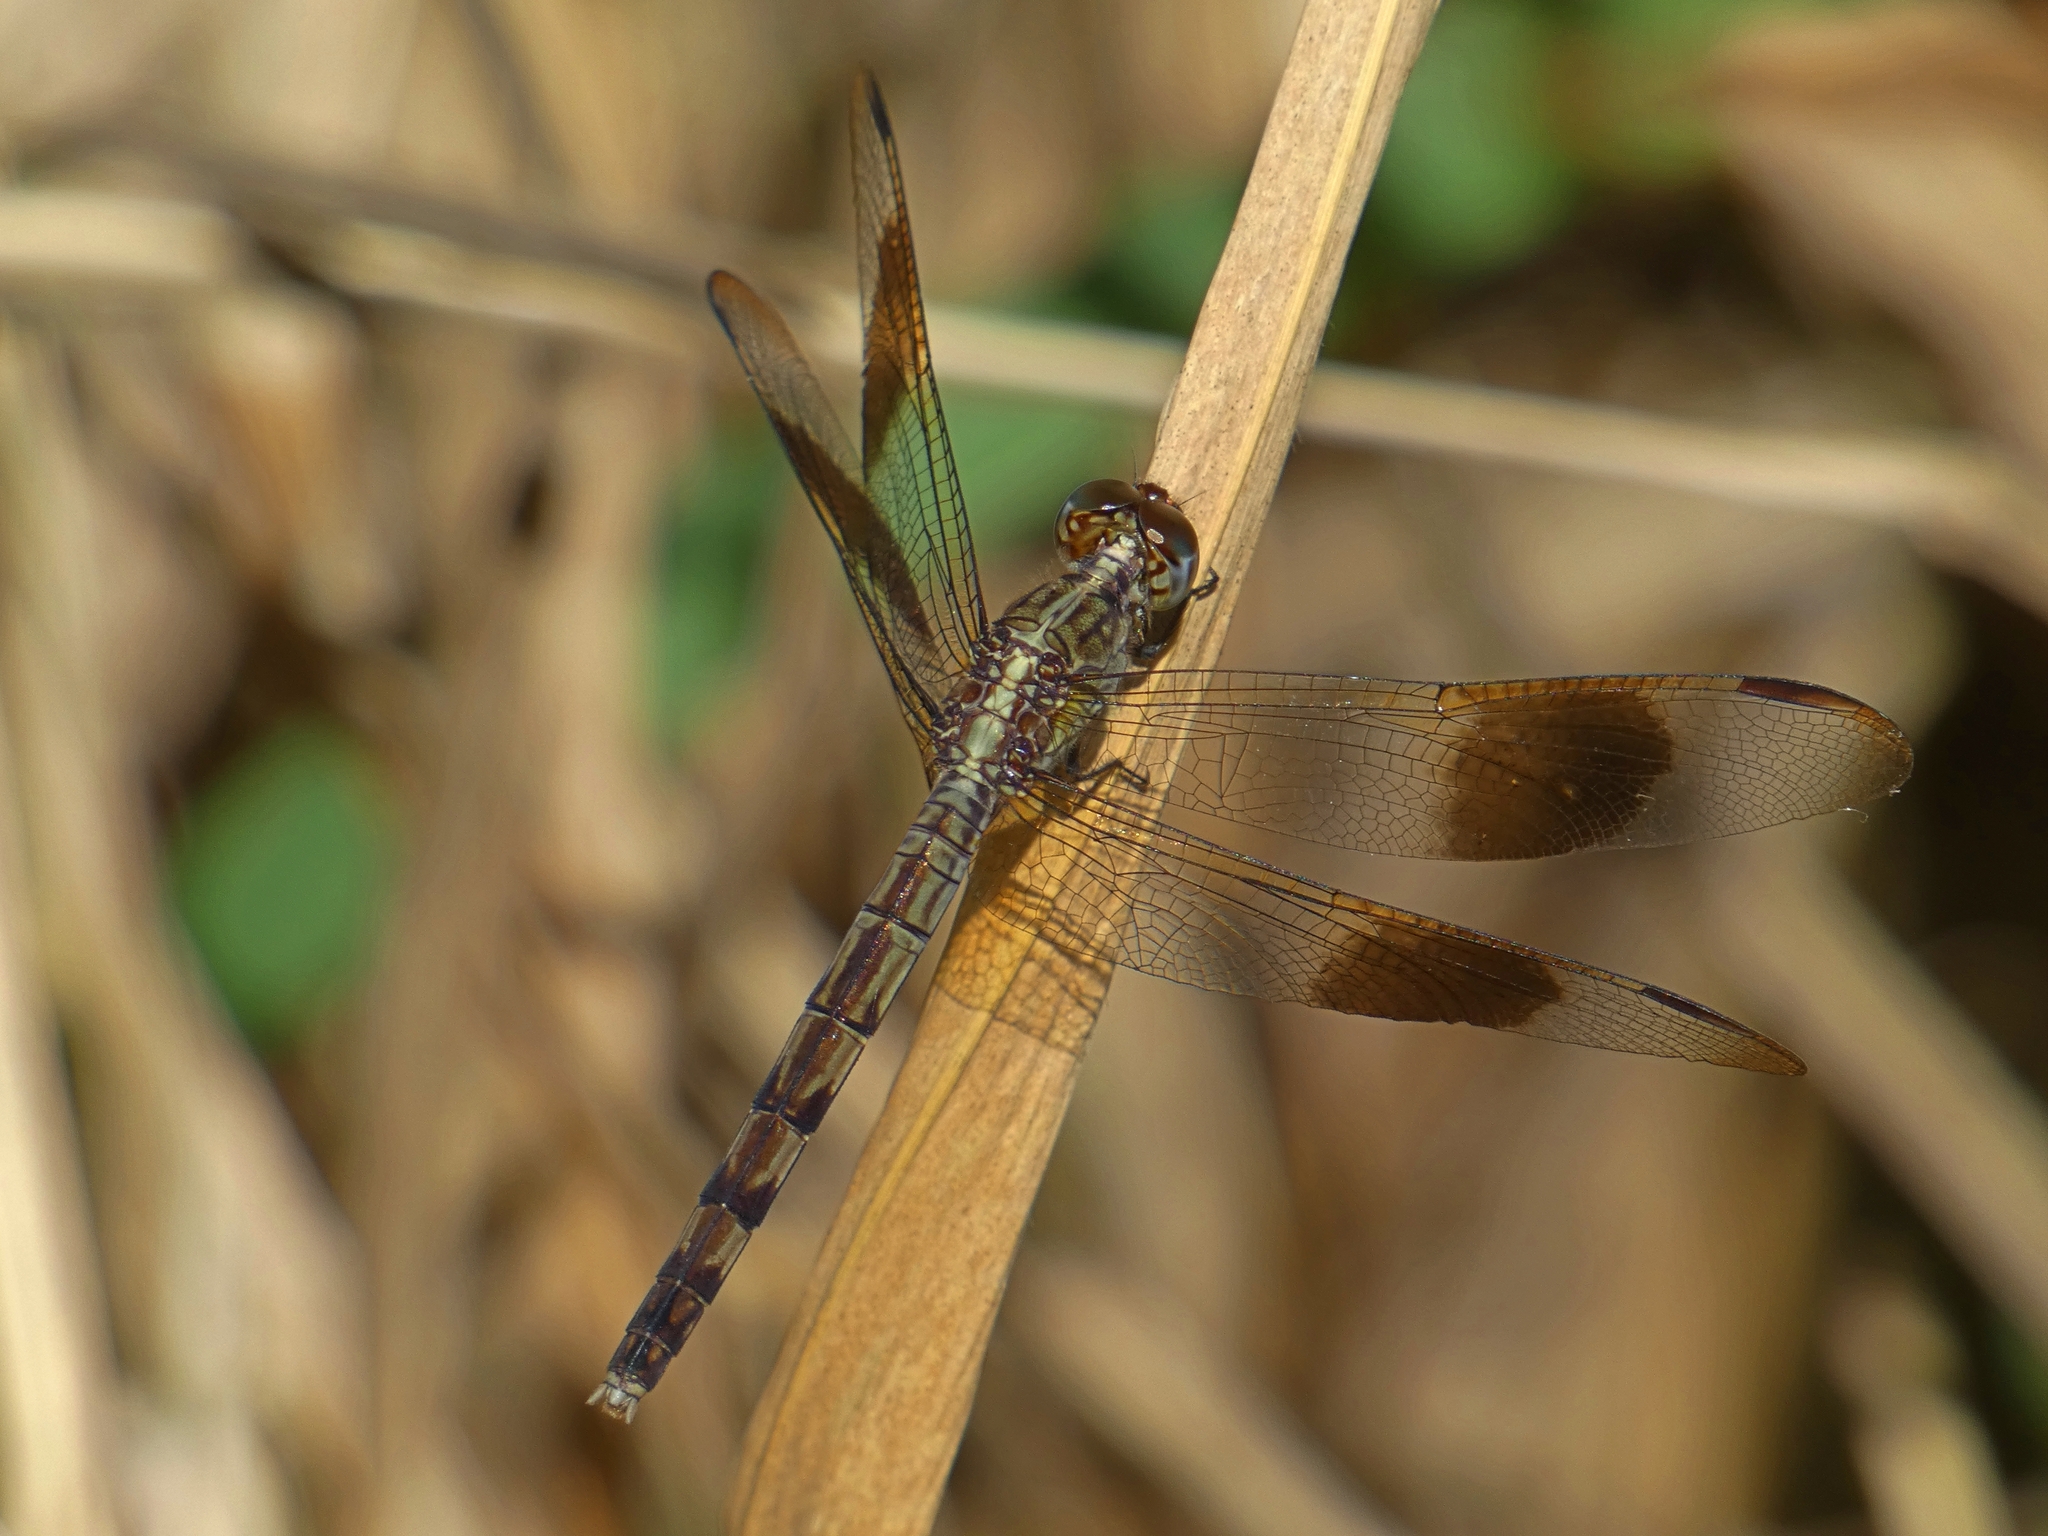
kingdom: Animalia
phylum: Arthropoda
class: Insecta
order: Odonata
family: Libellulidae
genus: Erythrodiplax
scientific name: Erythrodiplax umbrata
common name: Band-winged dragonlet
